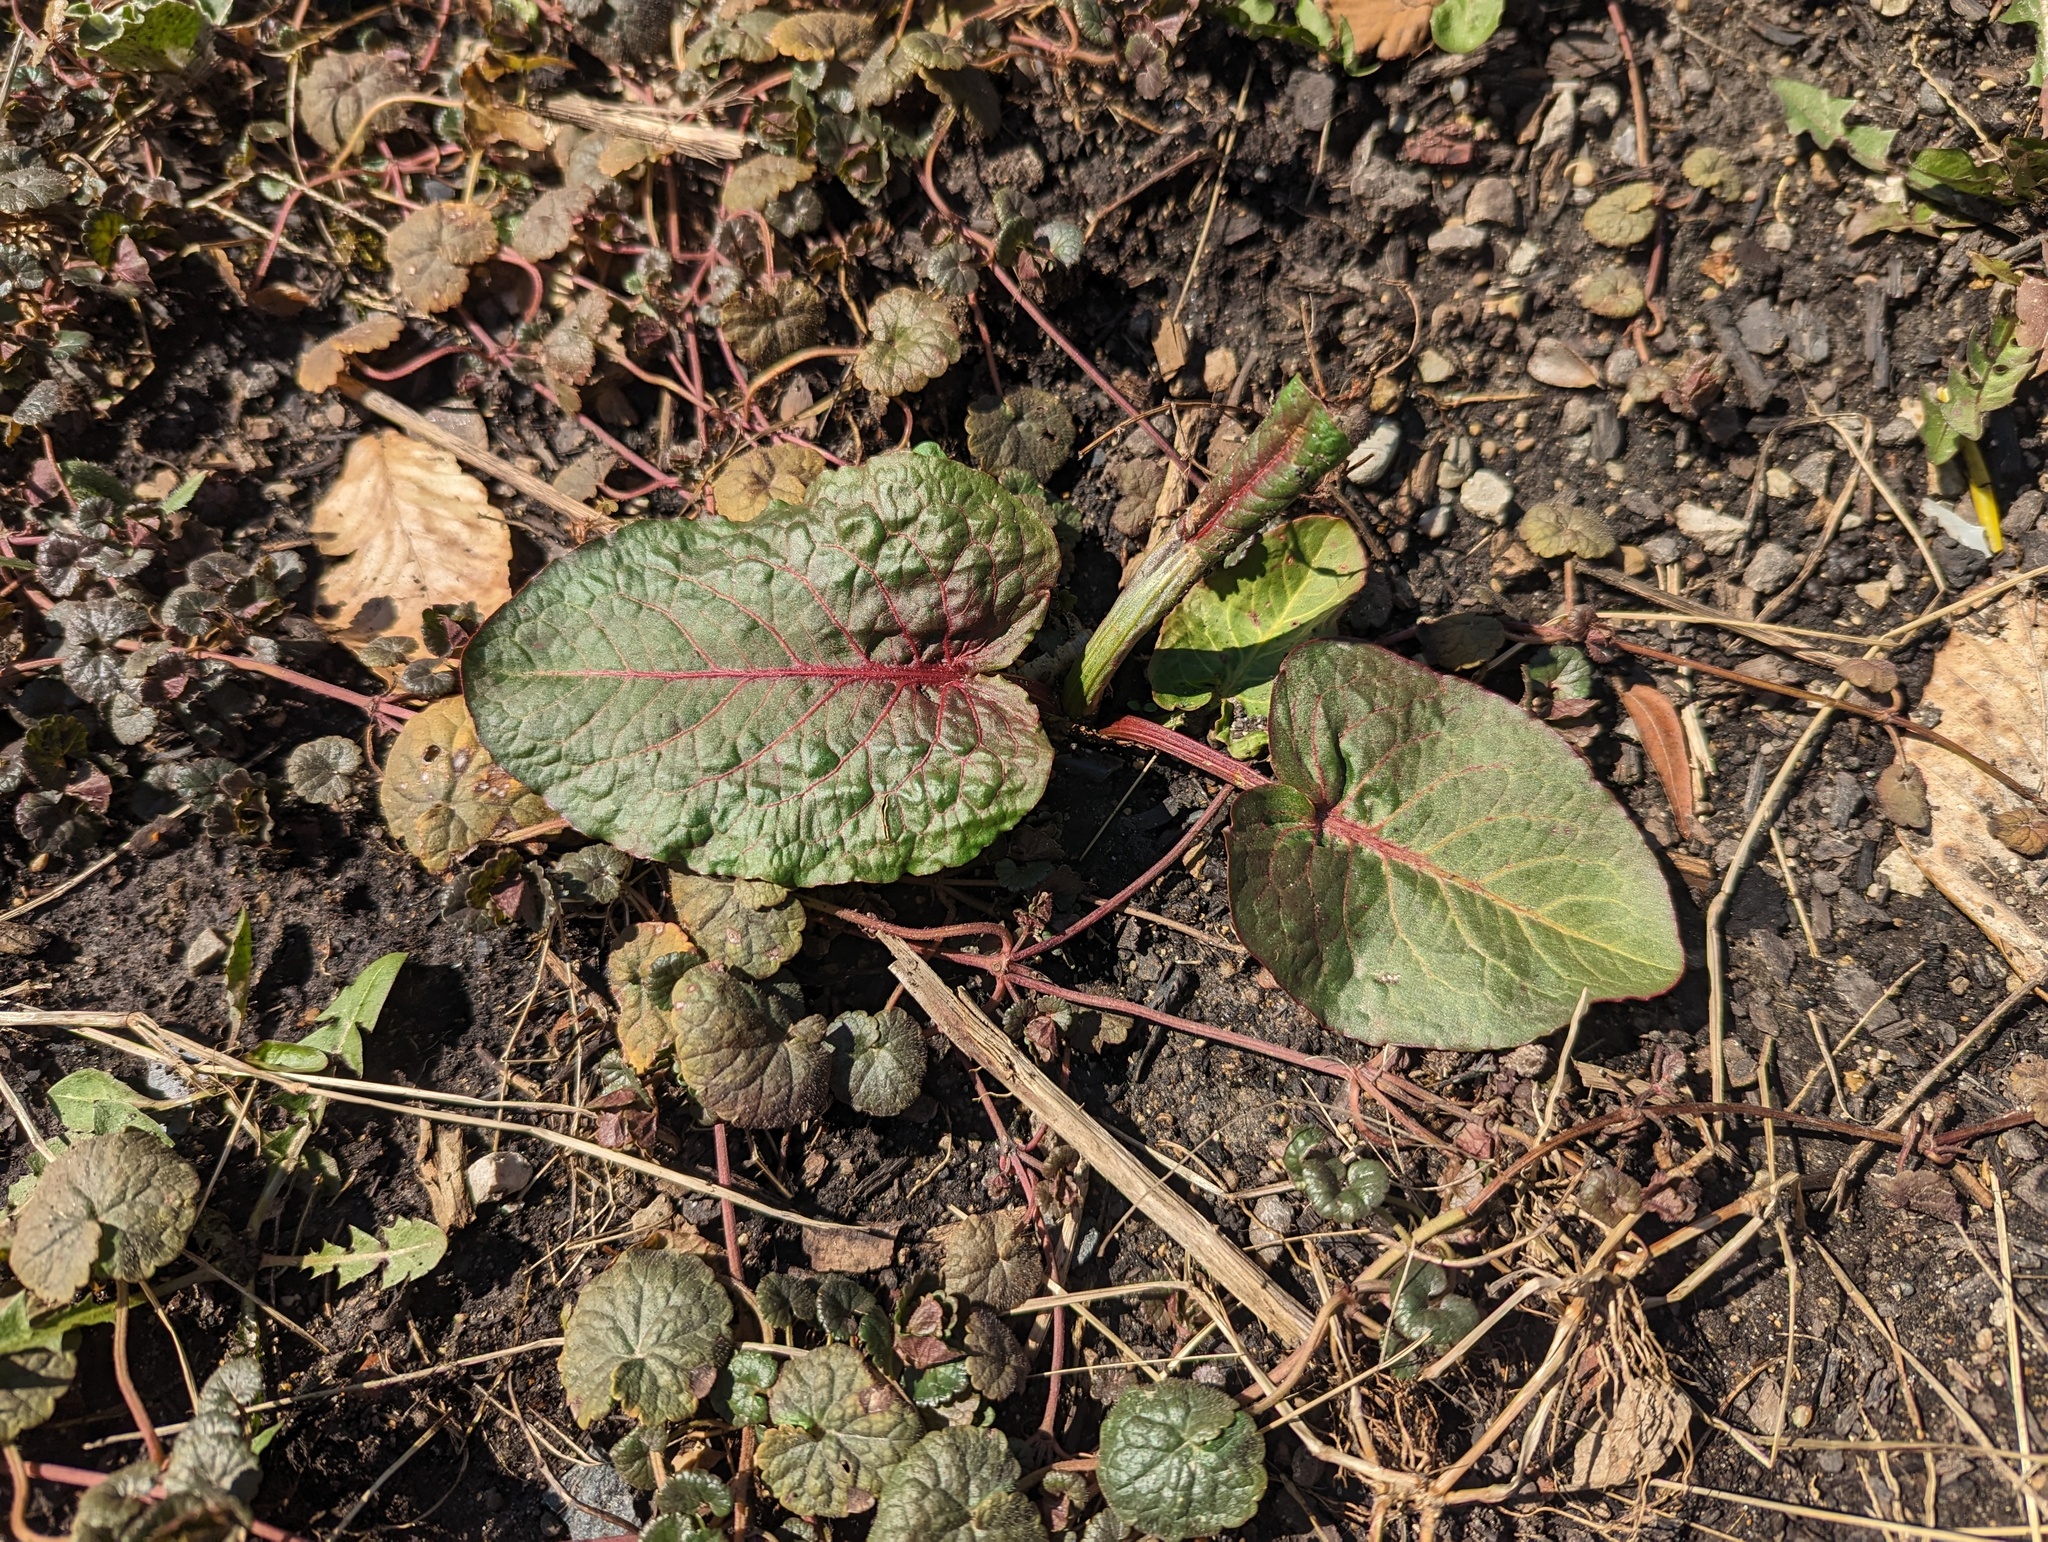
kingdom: Plantae
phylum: Tracheophyta
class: Magnoliopsida
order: Caryophyllales
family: Polygonaceae
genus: Rumex
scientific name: Rumex obtusifolius
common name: Bitter dock
